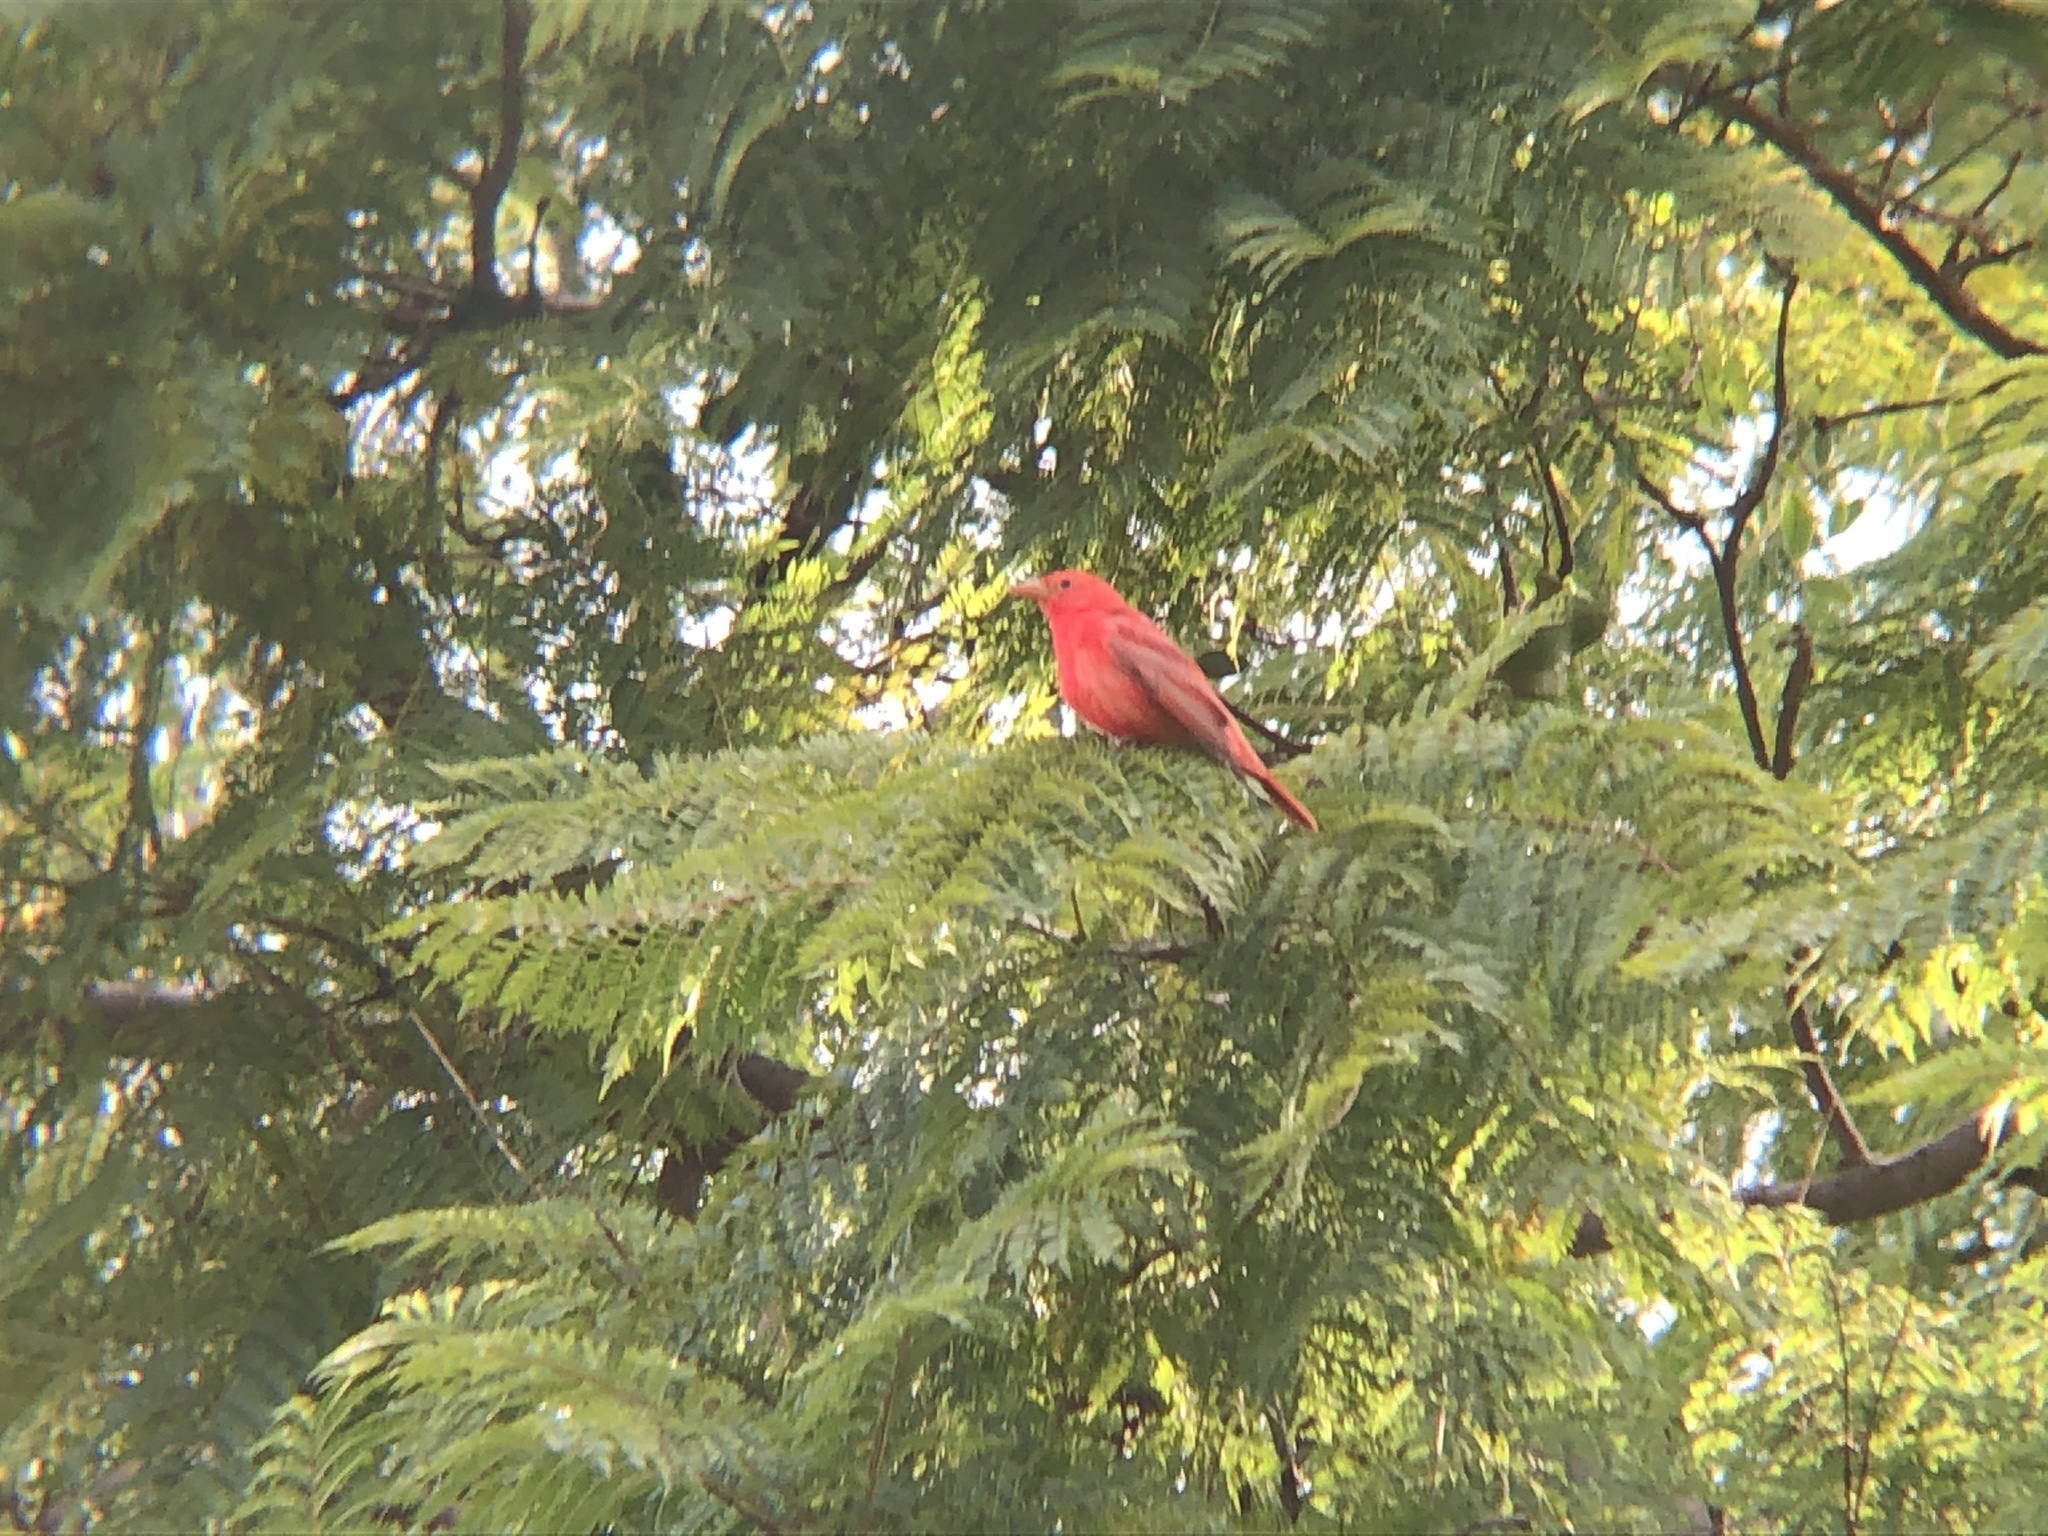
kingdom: Animalia
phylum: Chordata
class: Aves
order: Passeriformes
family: Cardinalidae
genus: Piranga
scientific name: Piranga rubra
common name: Summer tanager
